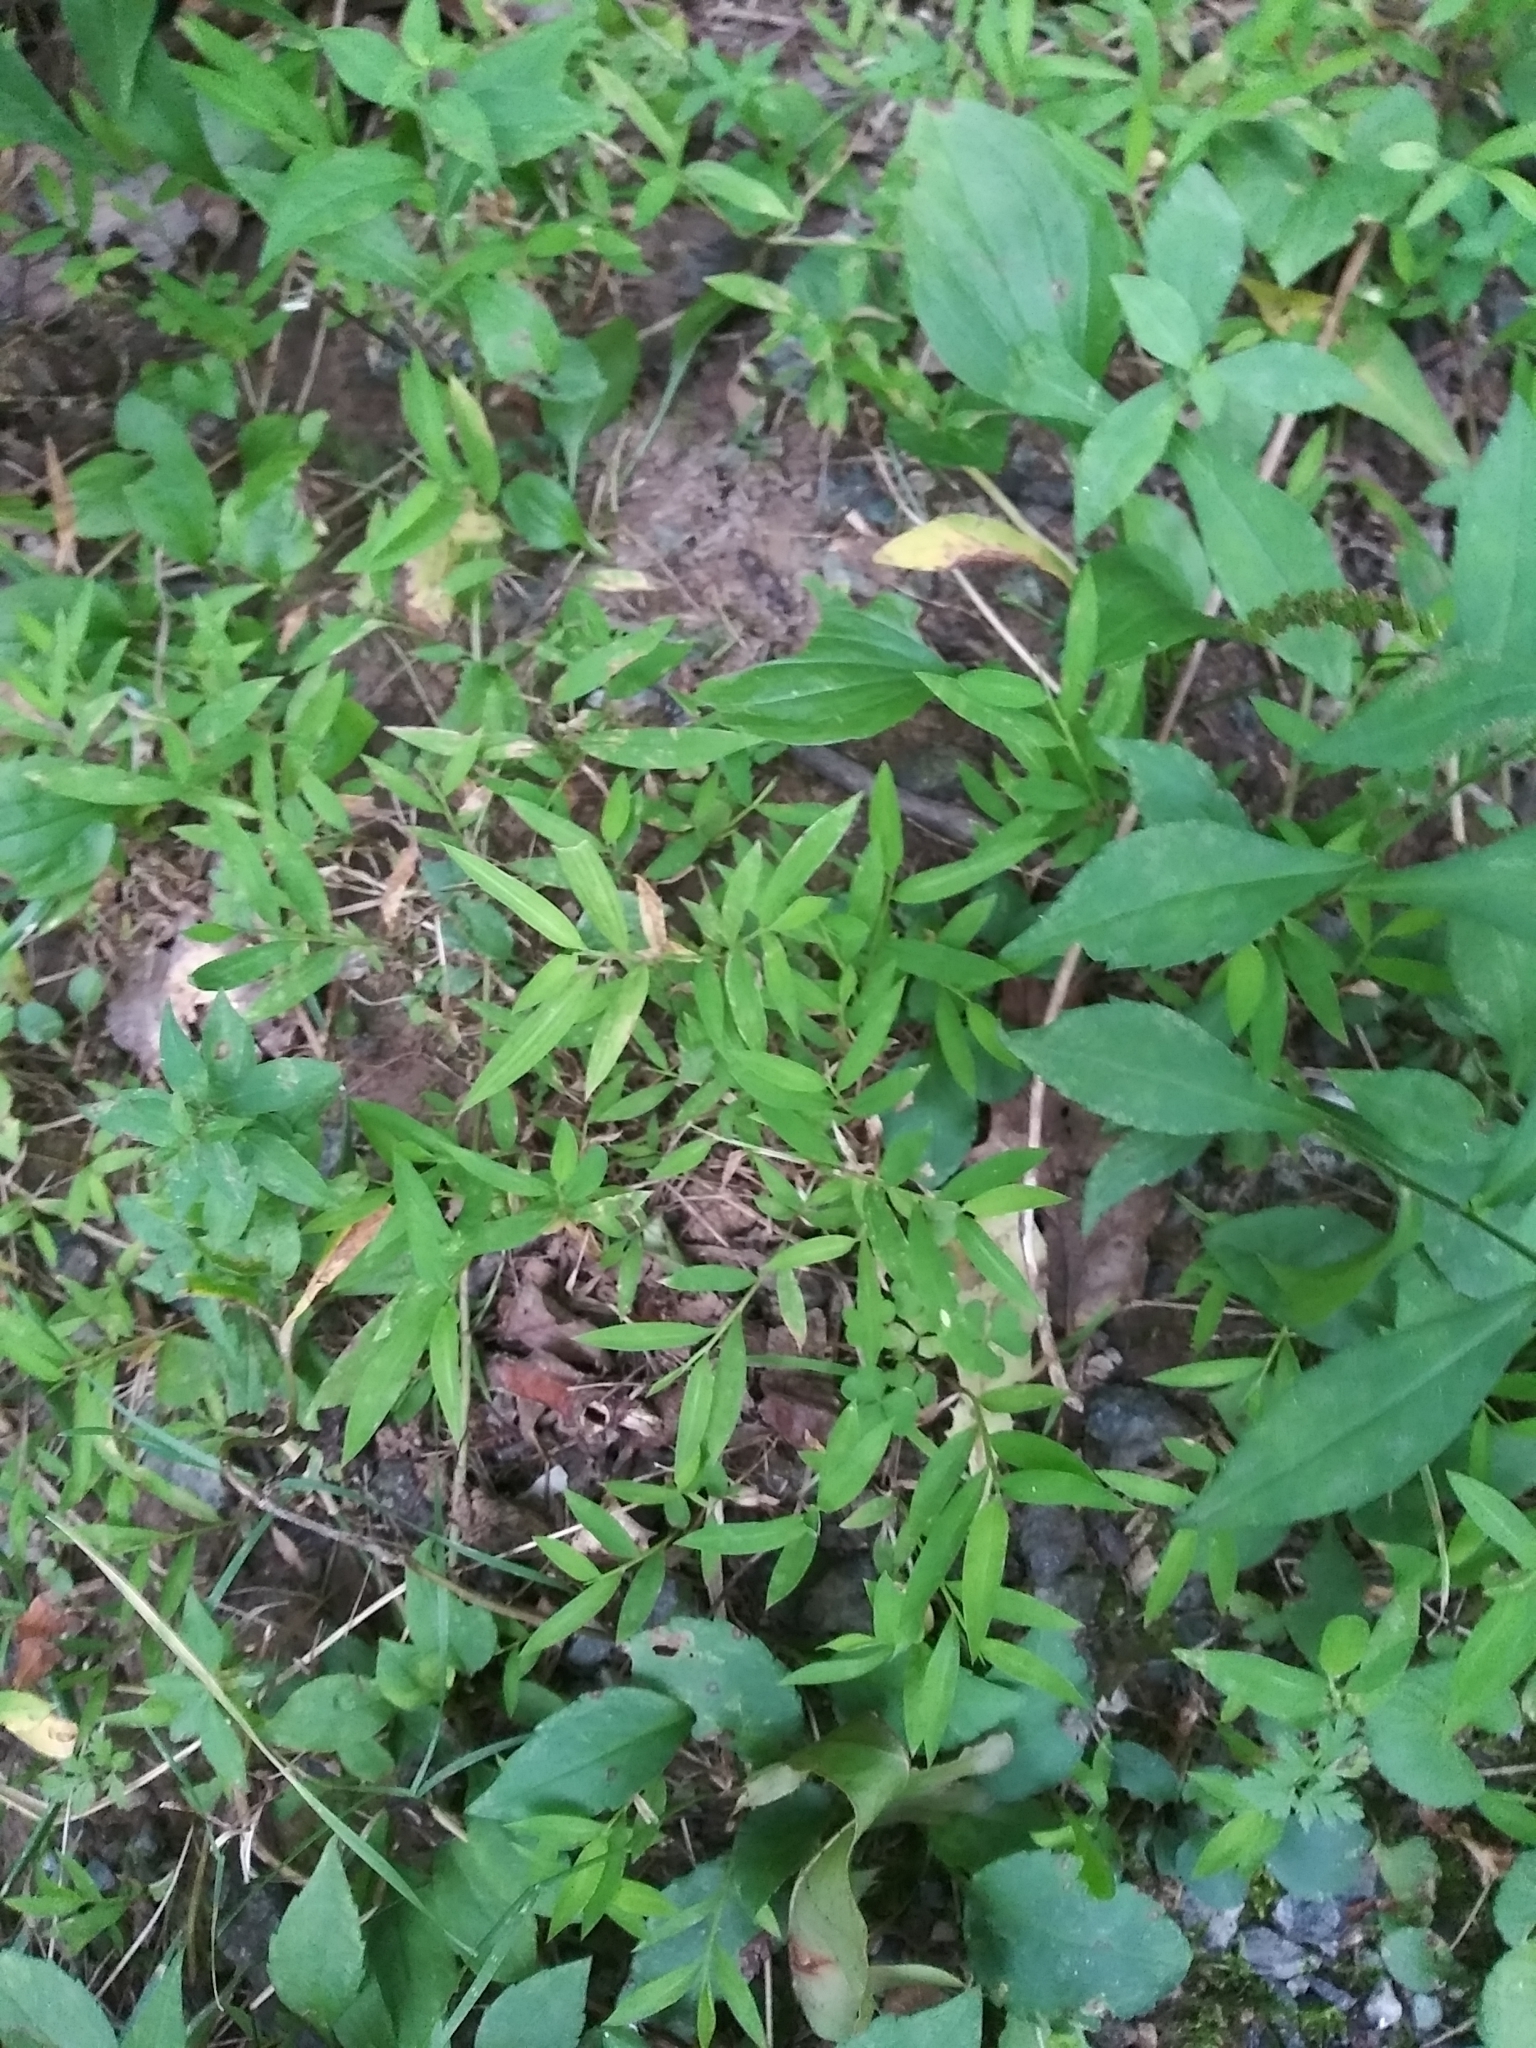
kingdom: Plantae
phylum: Tracheophyta
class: Liliopsida
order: Poales
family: Poaceae
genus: Microstegium
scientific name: Microstegium vimineum
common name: Japanese stiltgrass
